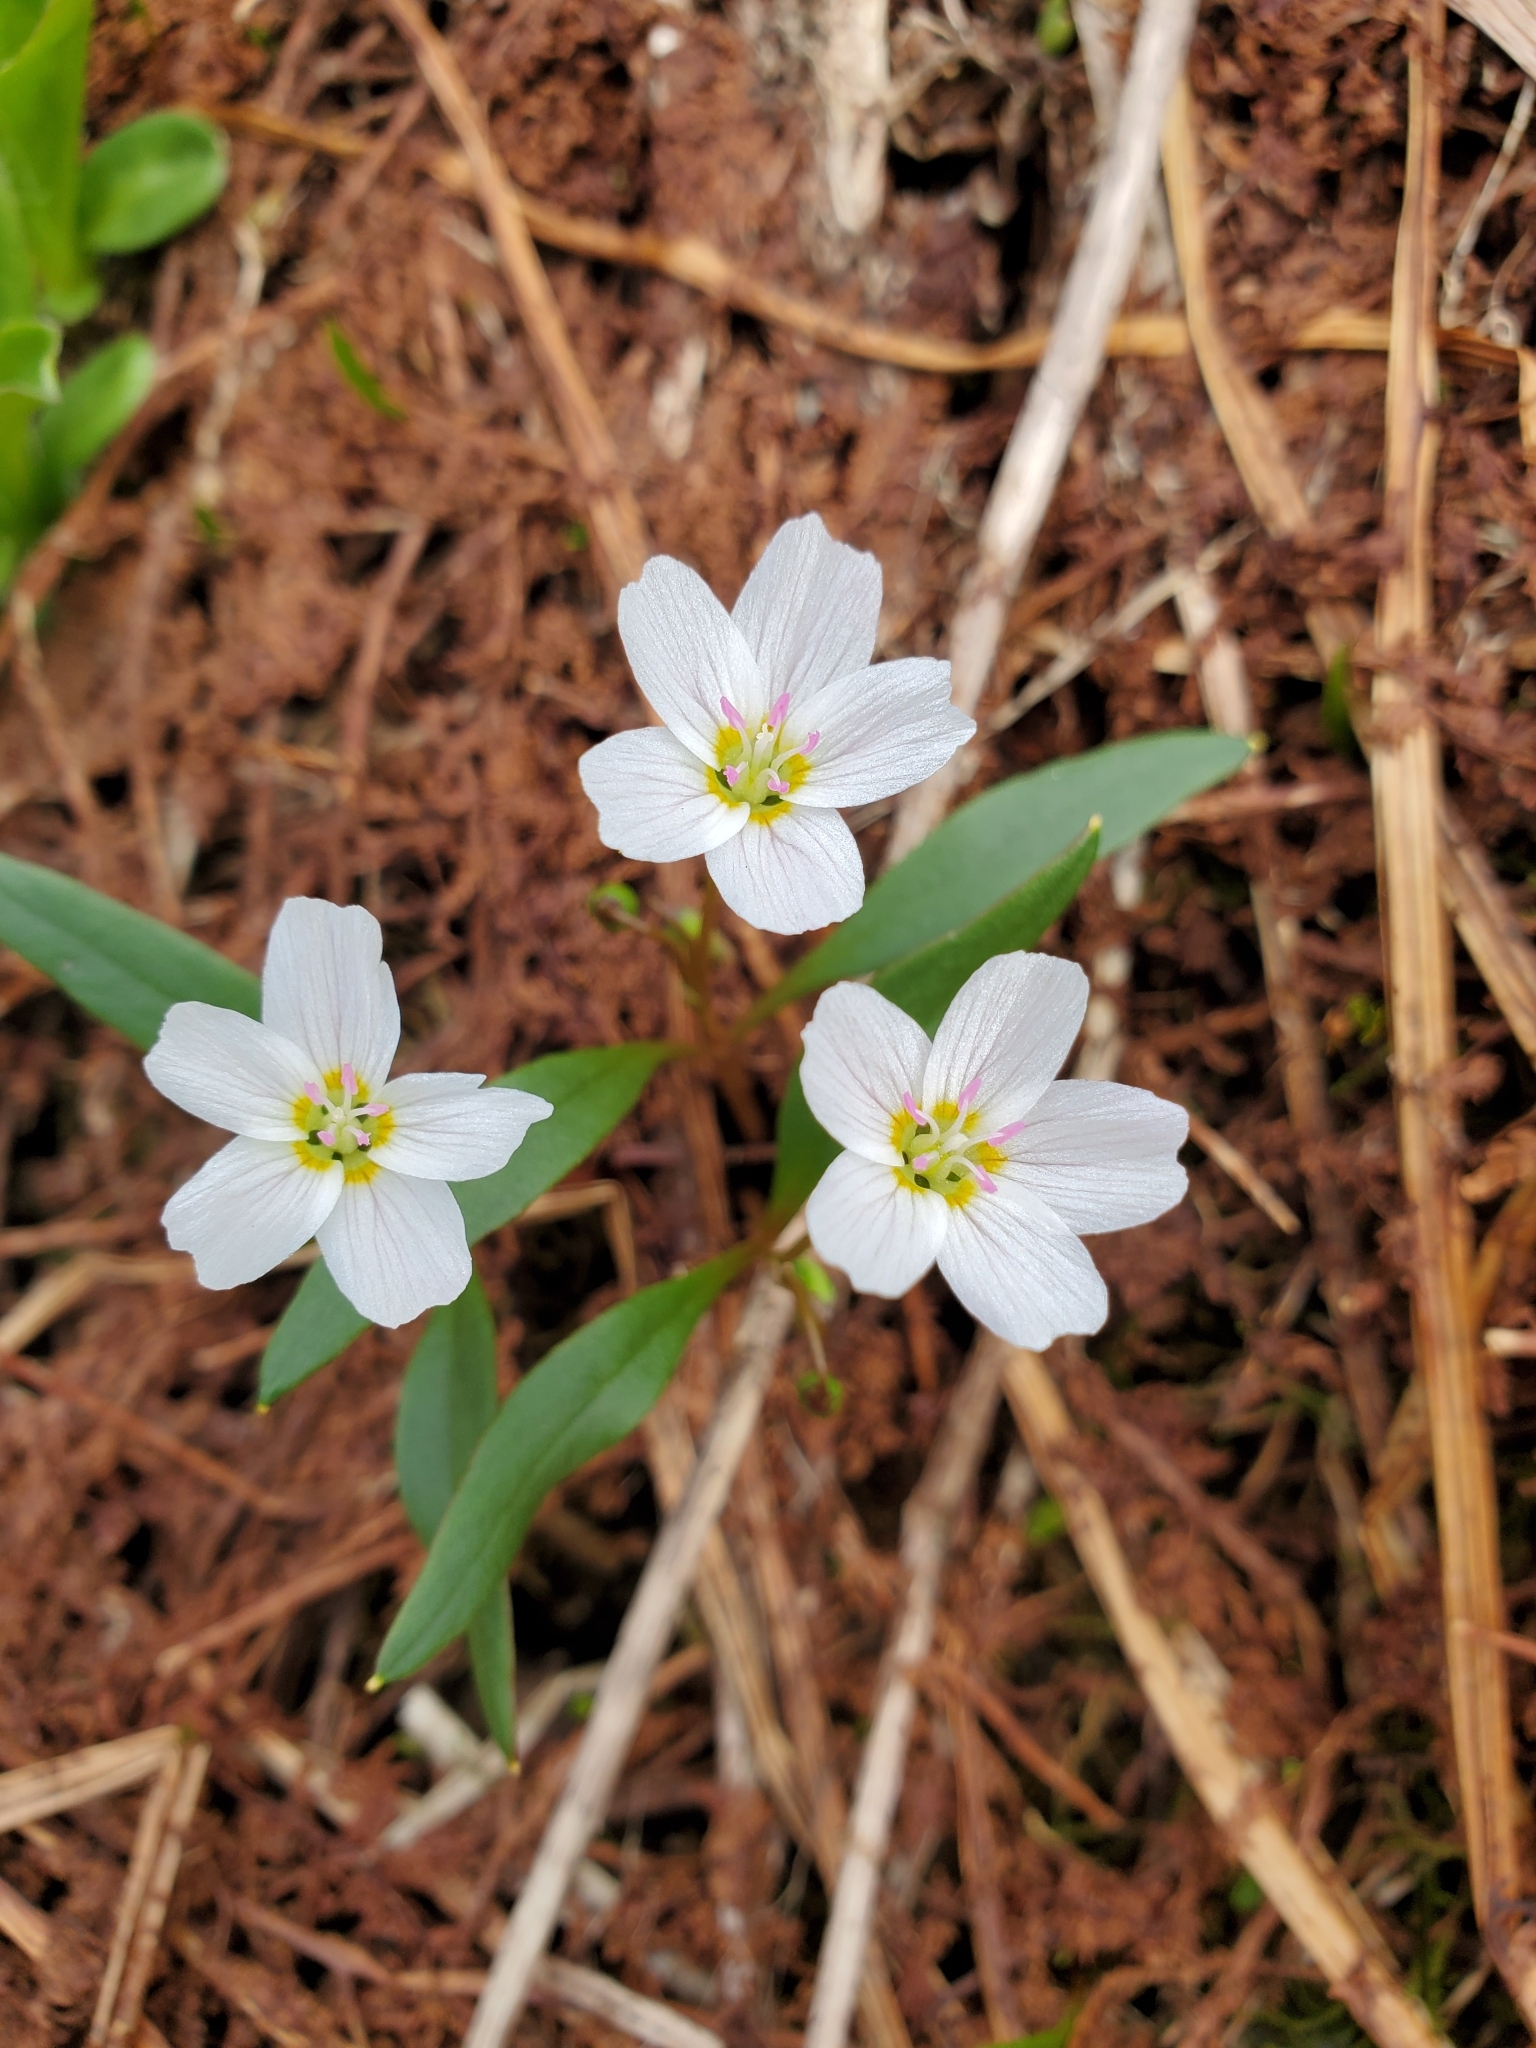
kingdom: Plantae
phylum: Tracheophyta
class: Magnoliopsida
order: Caryophyllales
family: Montiaceae
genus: Claytonia
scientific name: Claytonia multiscapa
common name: Lanceleaf springbeauty
